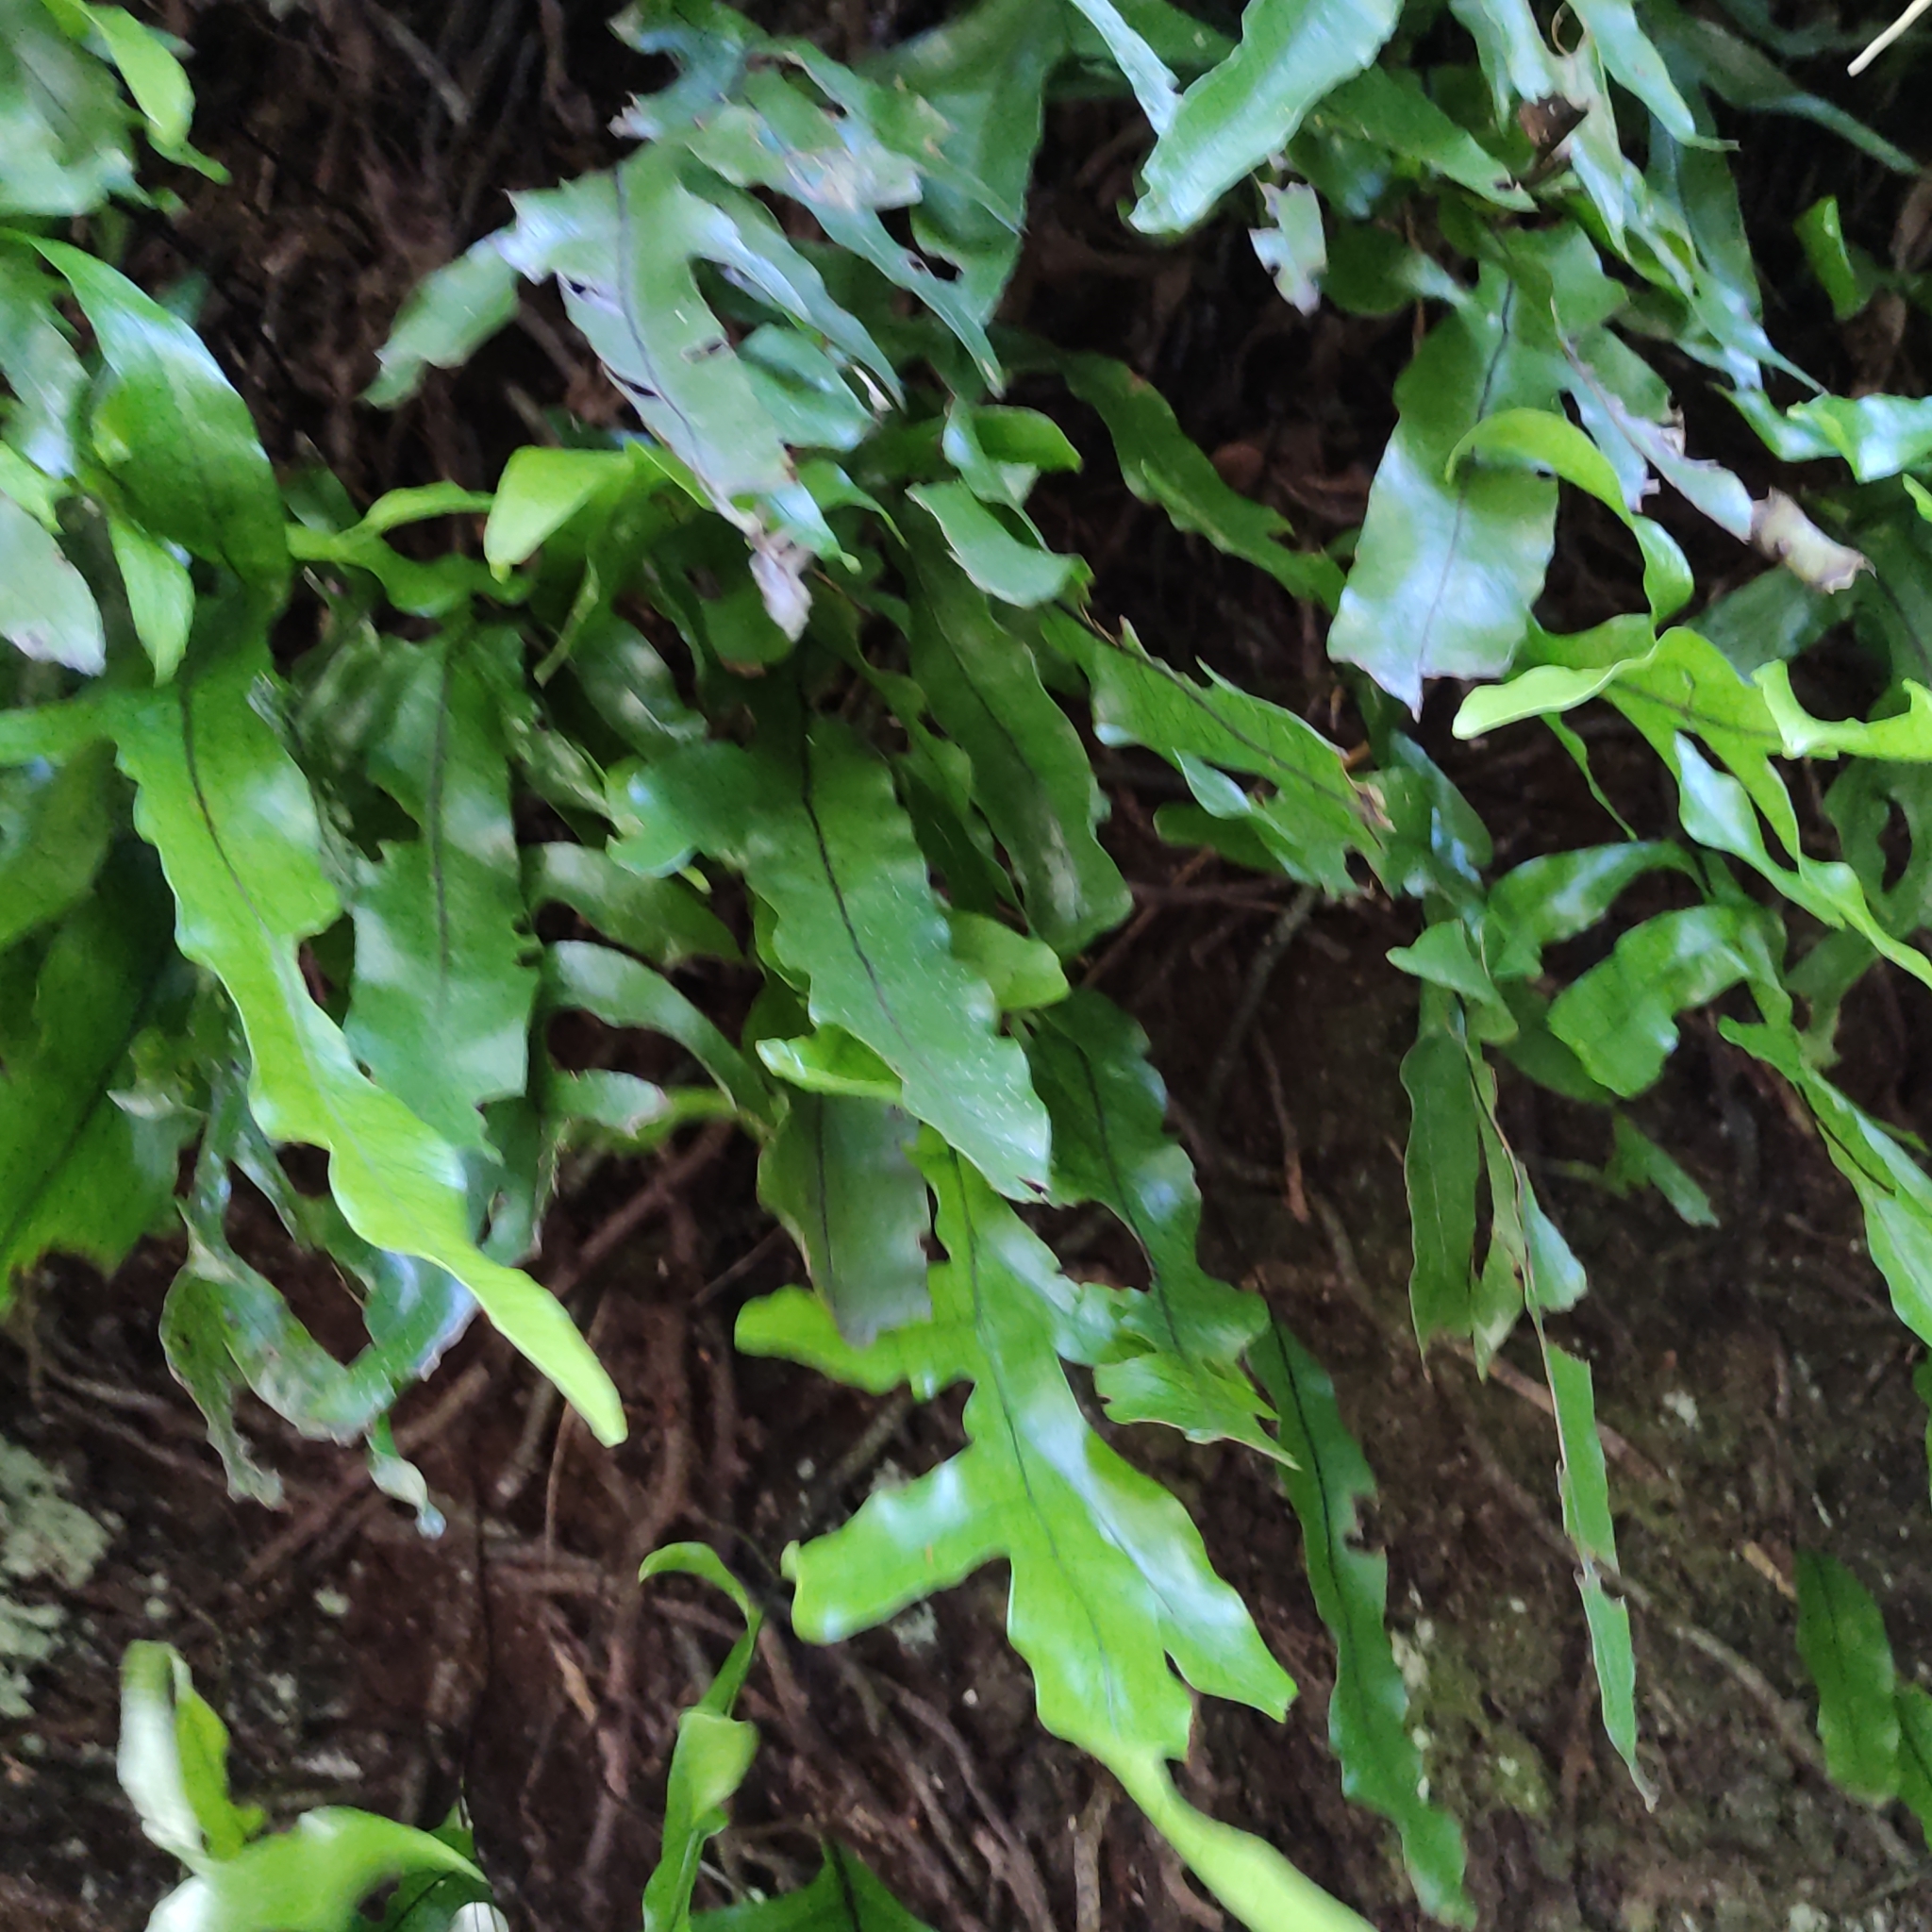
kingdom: Plantae
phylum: Tracheophyta
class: Polypodiopsida
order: Polypodiales
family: Polypodiaceae
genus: Lecanopteris
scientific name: Lecanopteris pustulata
